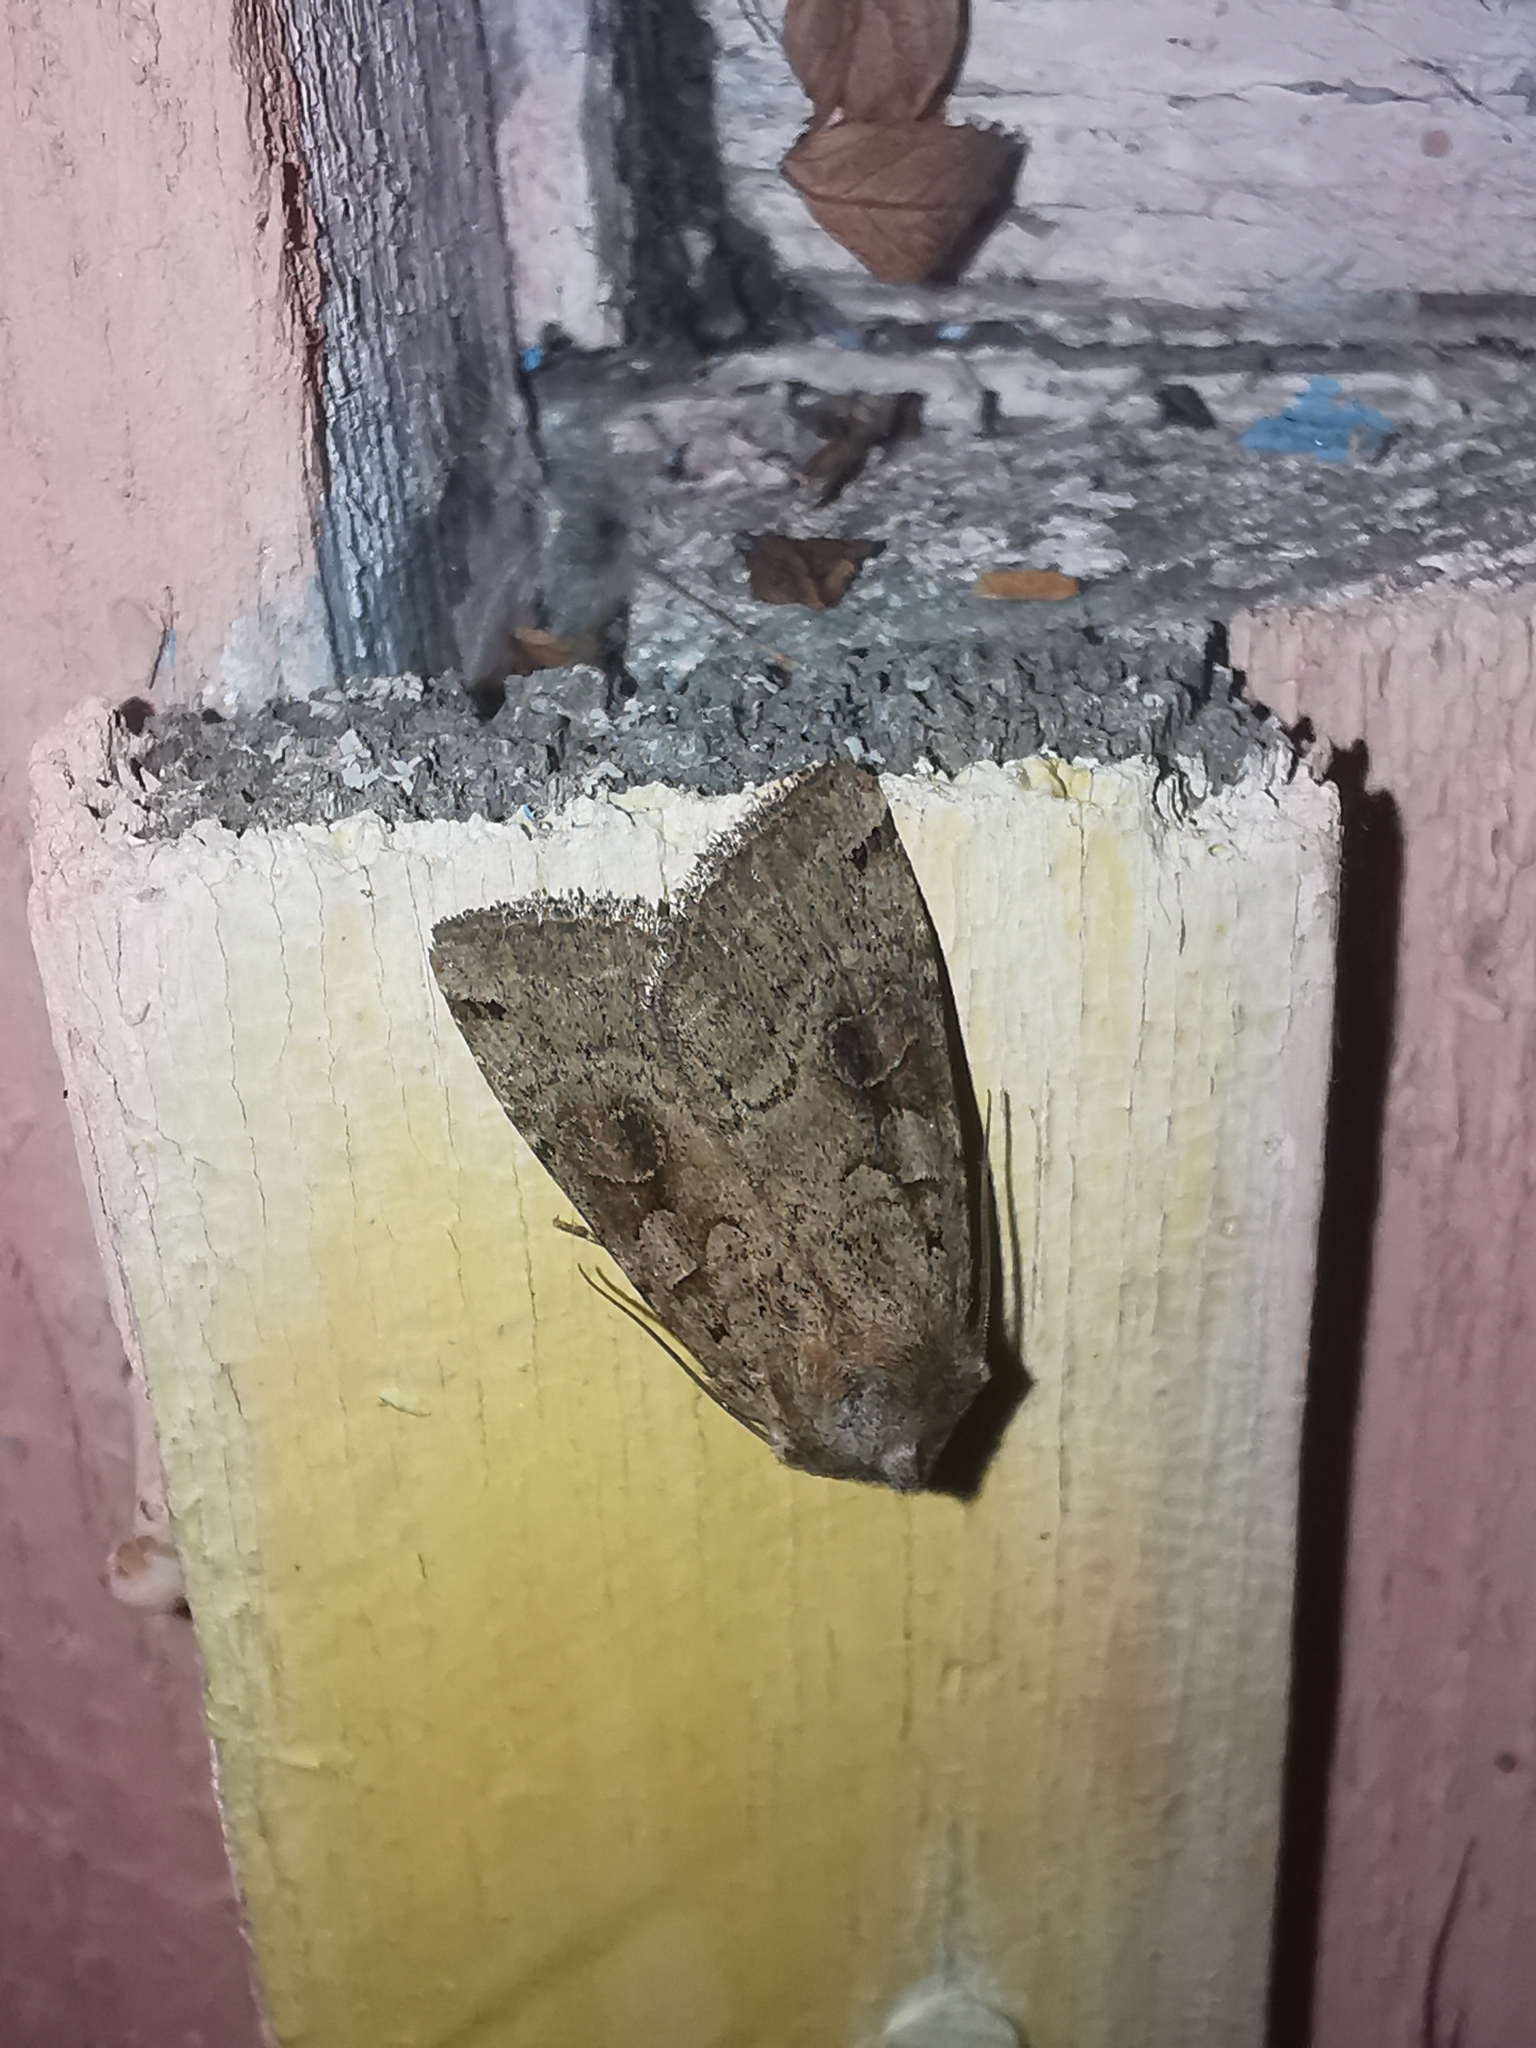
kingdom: Animalia
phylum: Arthropoda
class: Insecta
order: Lepidoptera
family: Noctuidae
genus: Xestia
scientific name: Xestia baja
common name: Dotted clay
